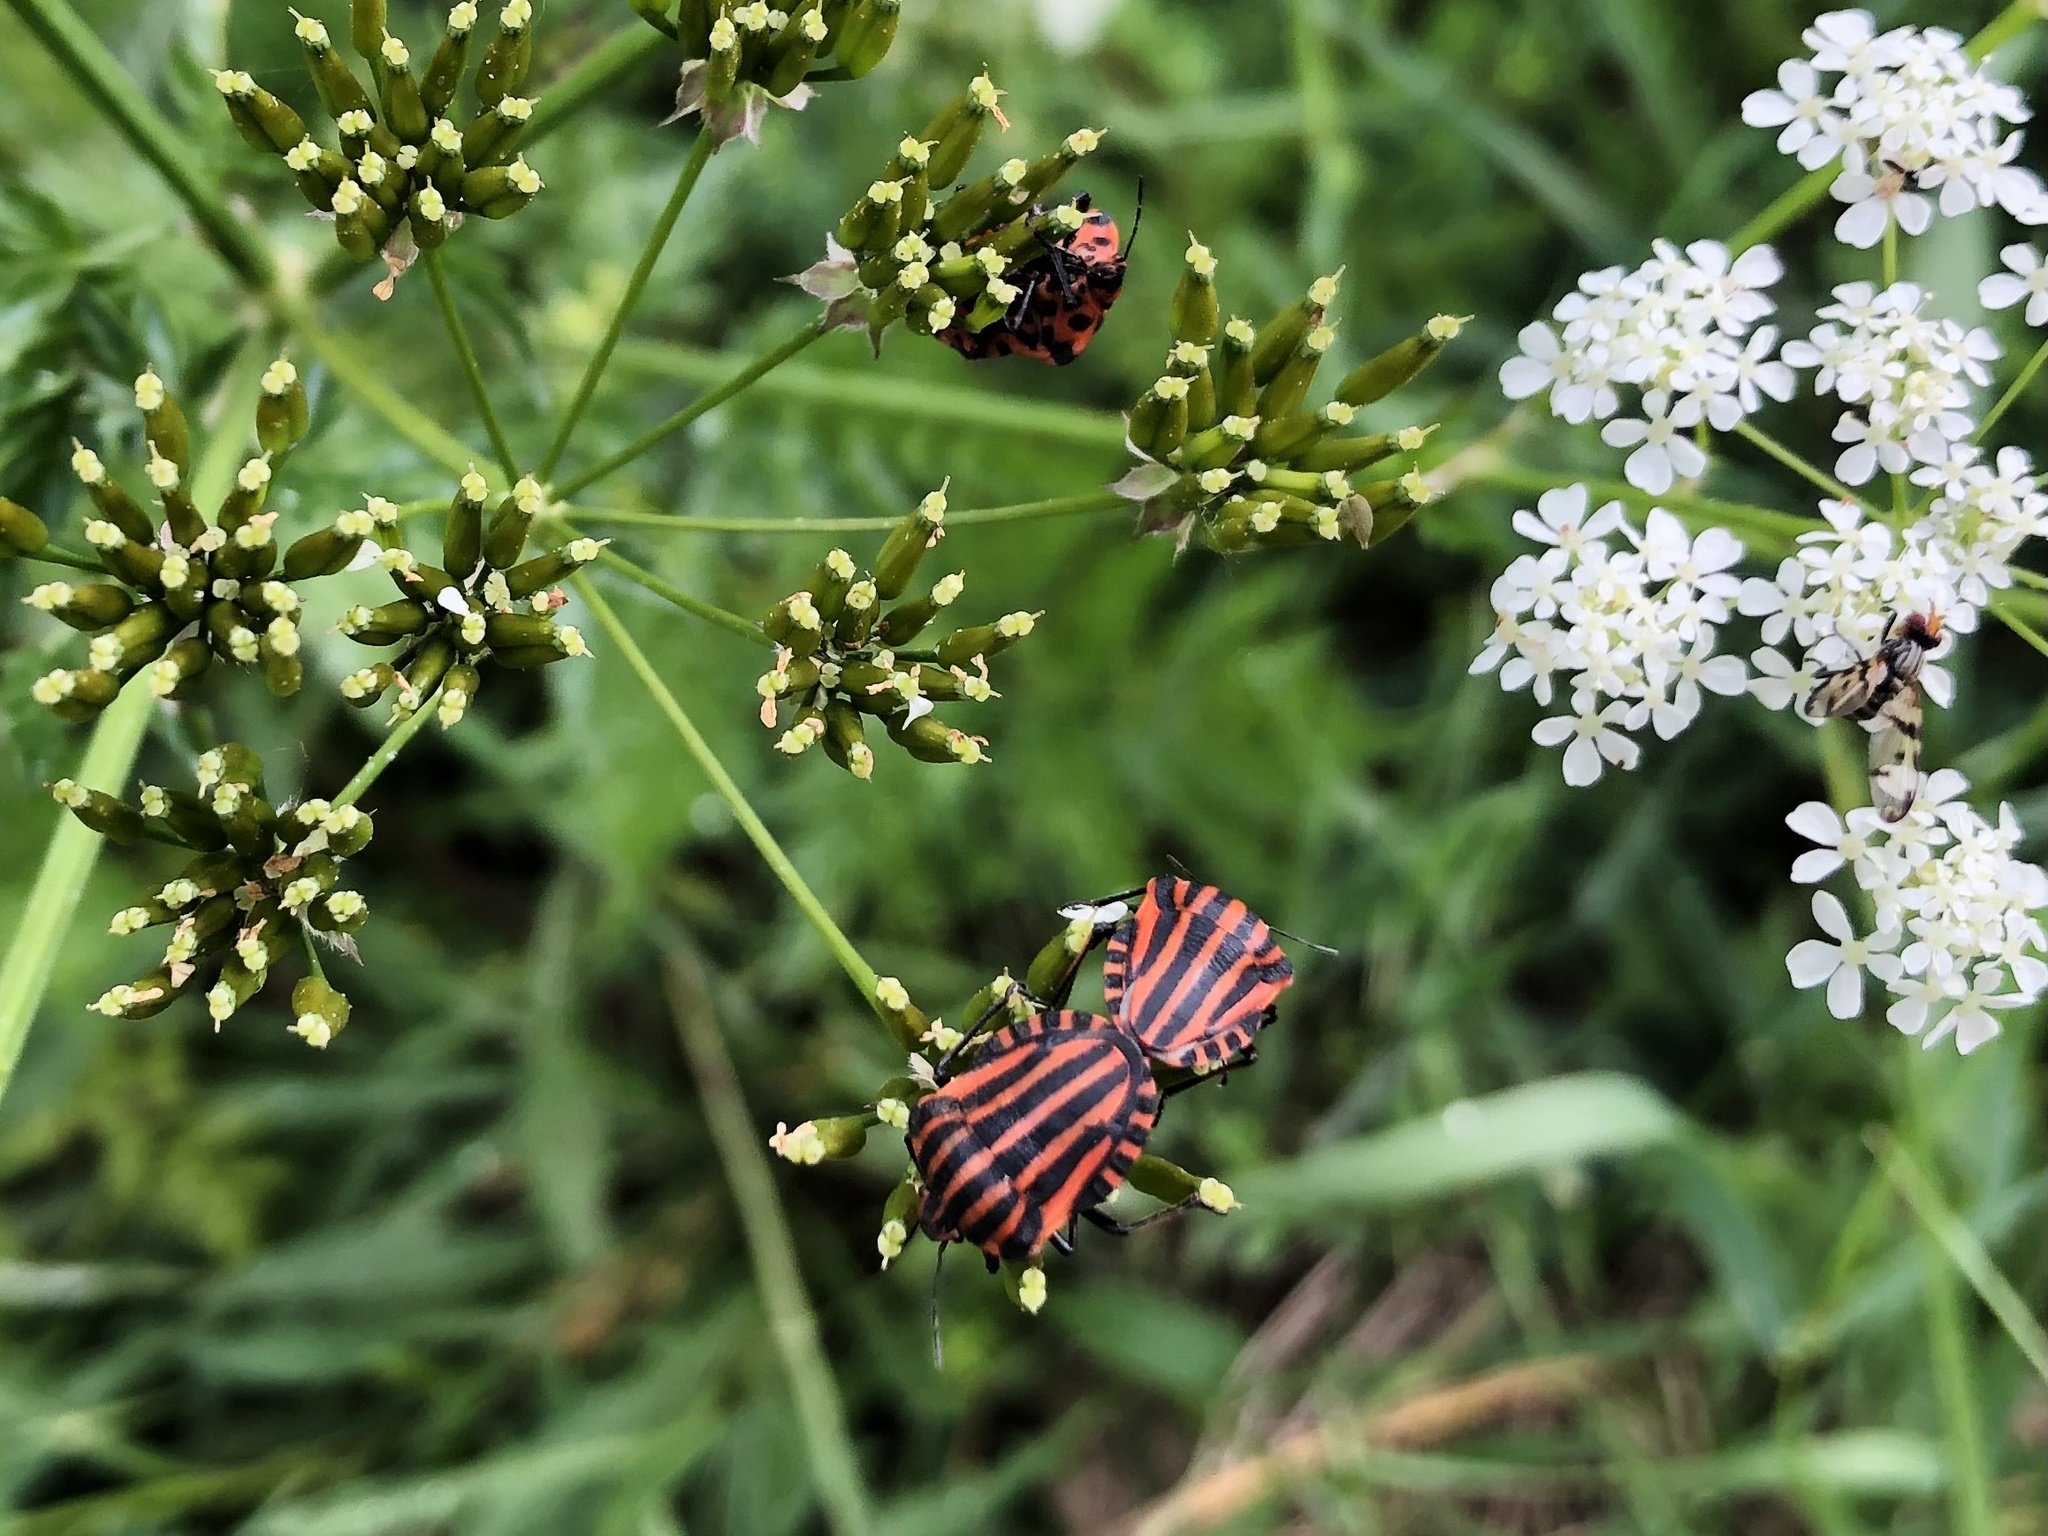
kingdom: Animalia
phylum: Arthropoda
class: Insecta
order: Hemiptera
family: Pentatomidae
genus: Graphosoma
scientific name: Graphosoma italicum
